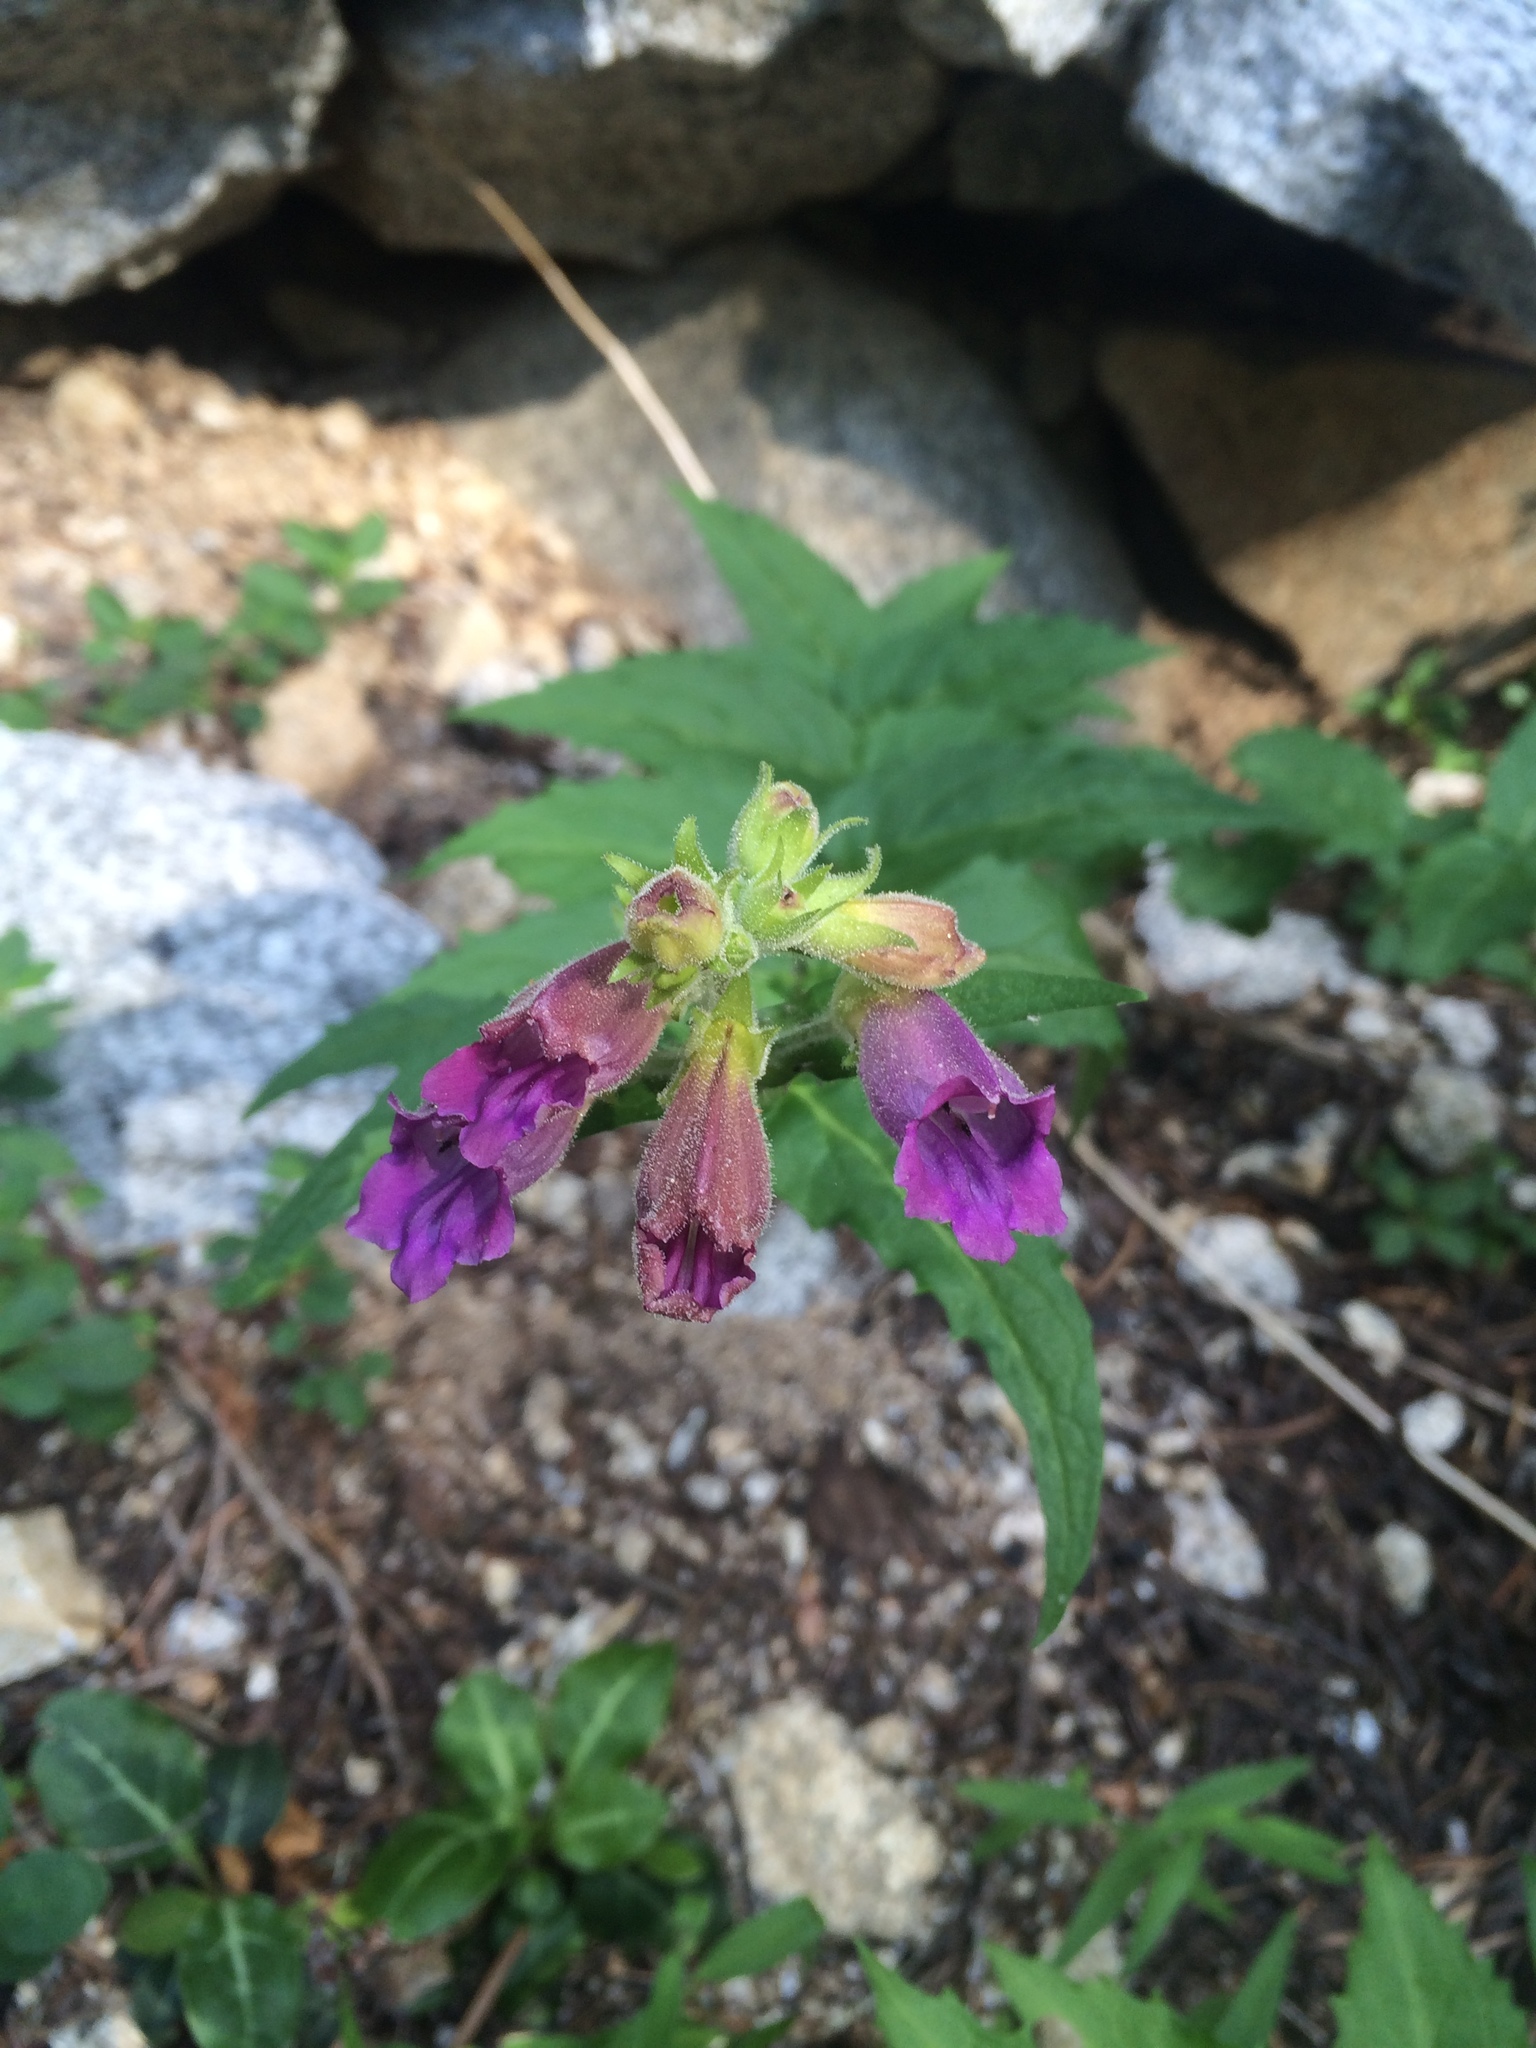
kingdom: Plantae
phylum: Tracheophyta
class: Magnoliopsida
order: Lamiales
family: Plantaginaceae
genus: Nothochelone
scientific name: Nothochelone nemorosa
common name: Woodland beardtongue
